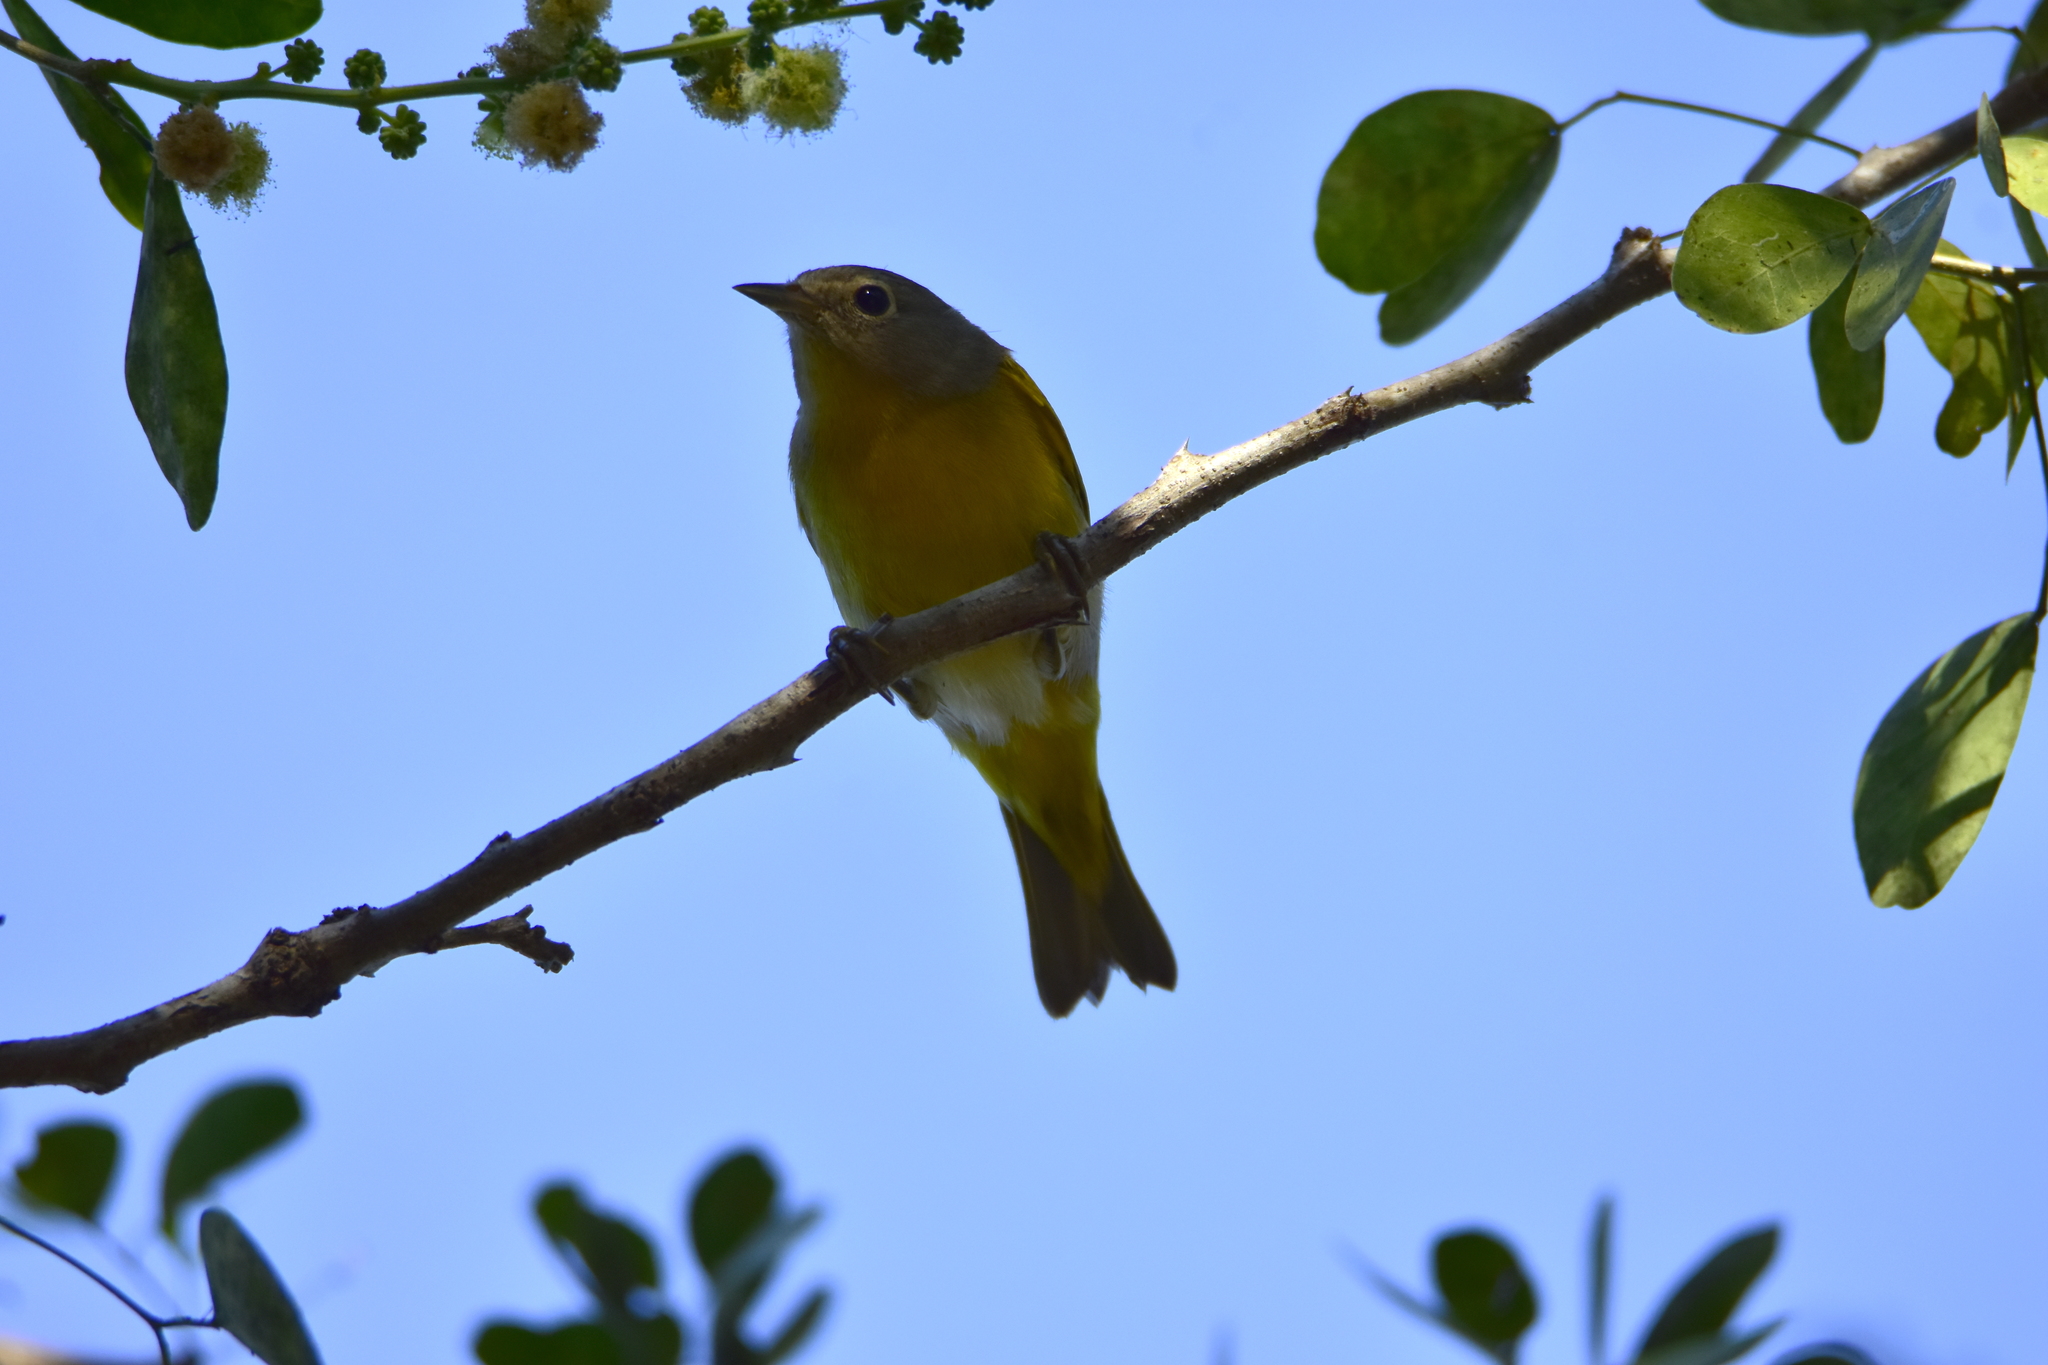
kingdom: Animalia
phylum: Chordata
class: Aves
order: Passeriformes
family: Parulidae
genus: Leiothlypis
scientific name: Leiothlypis ruficapilla
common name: Nashville warbler
